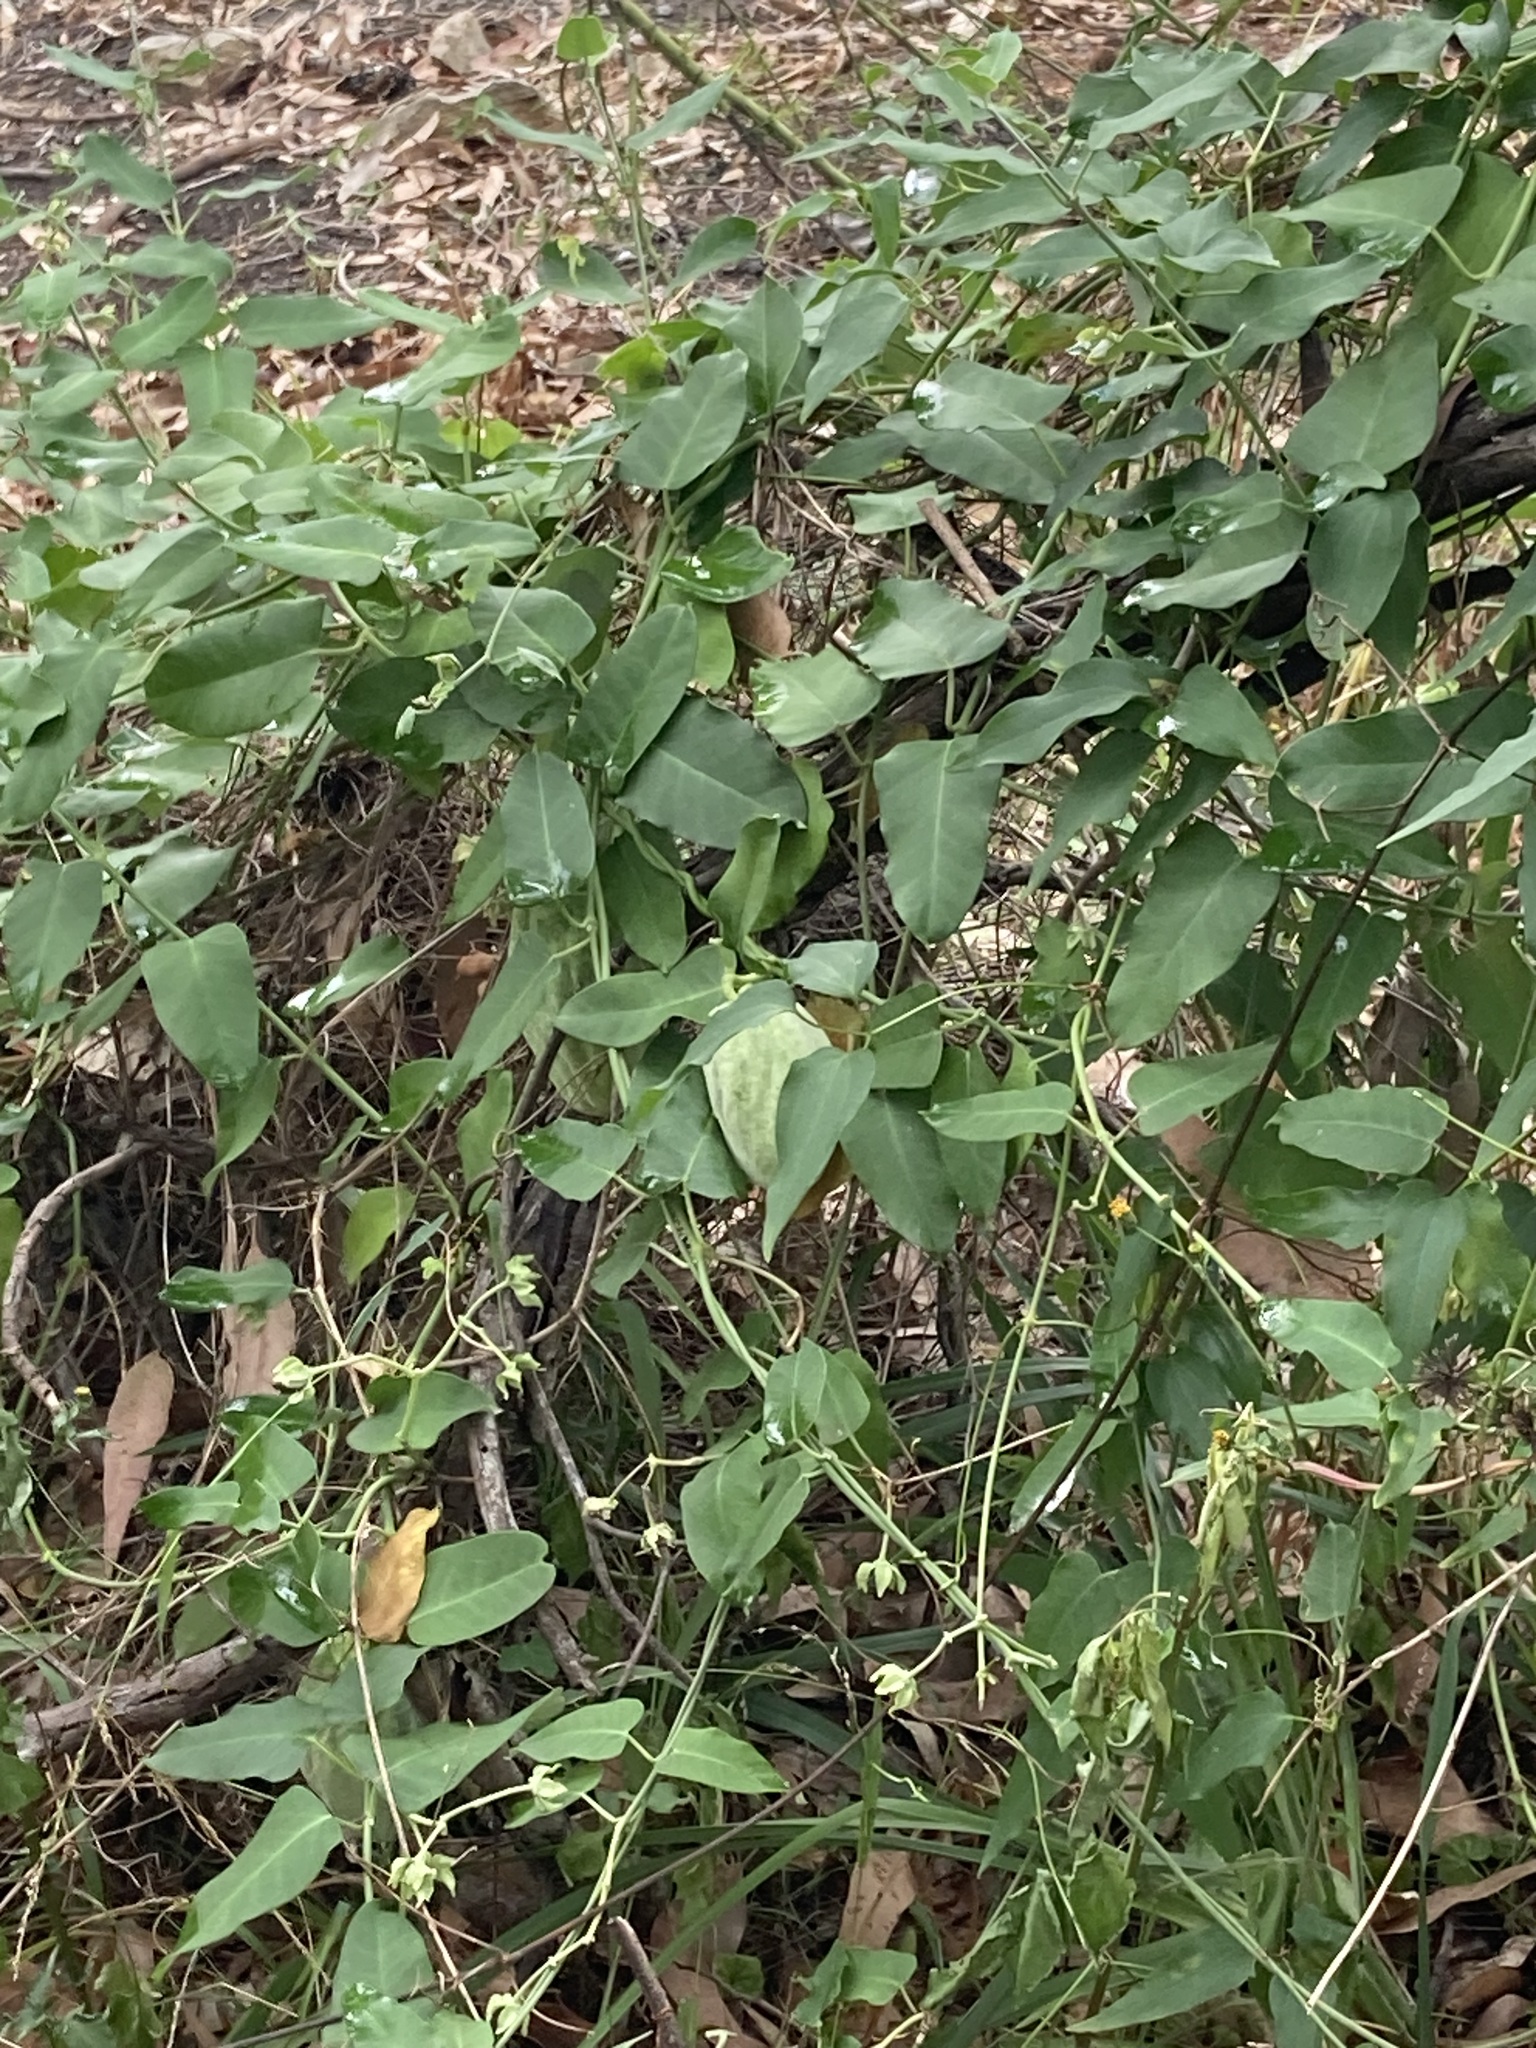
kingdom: Plantae
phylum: Tracheophyta
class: Magnoliopsida
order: Gentianales
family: Apocynaceae
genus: Araujia
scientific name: Araujia sericifera
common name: White bladderflower
